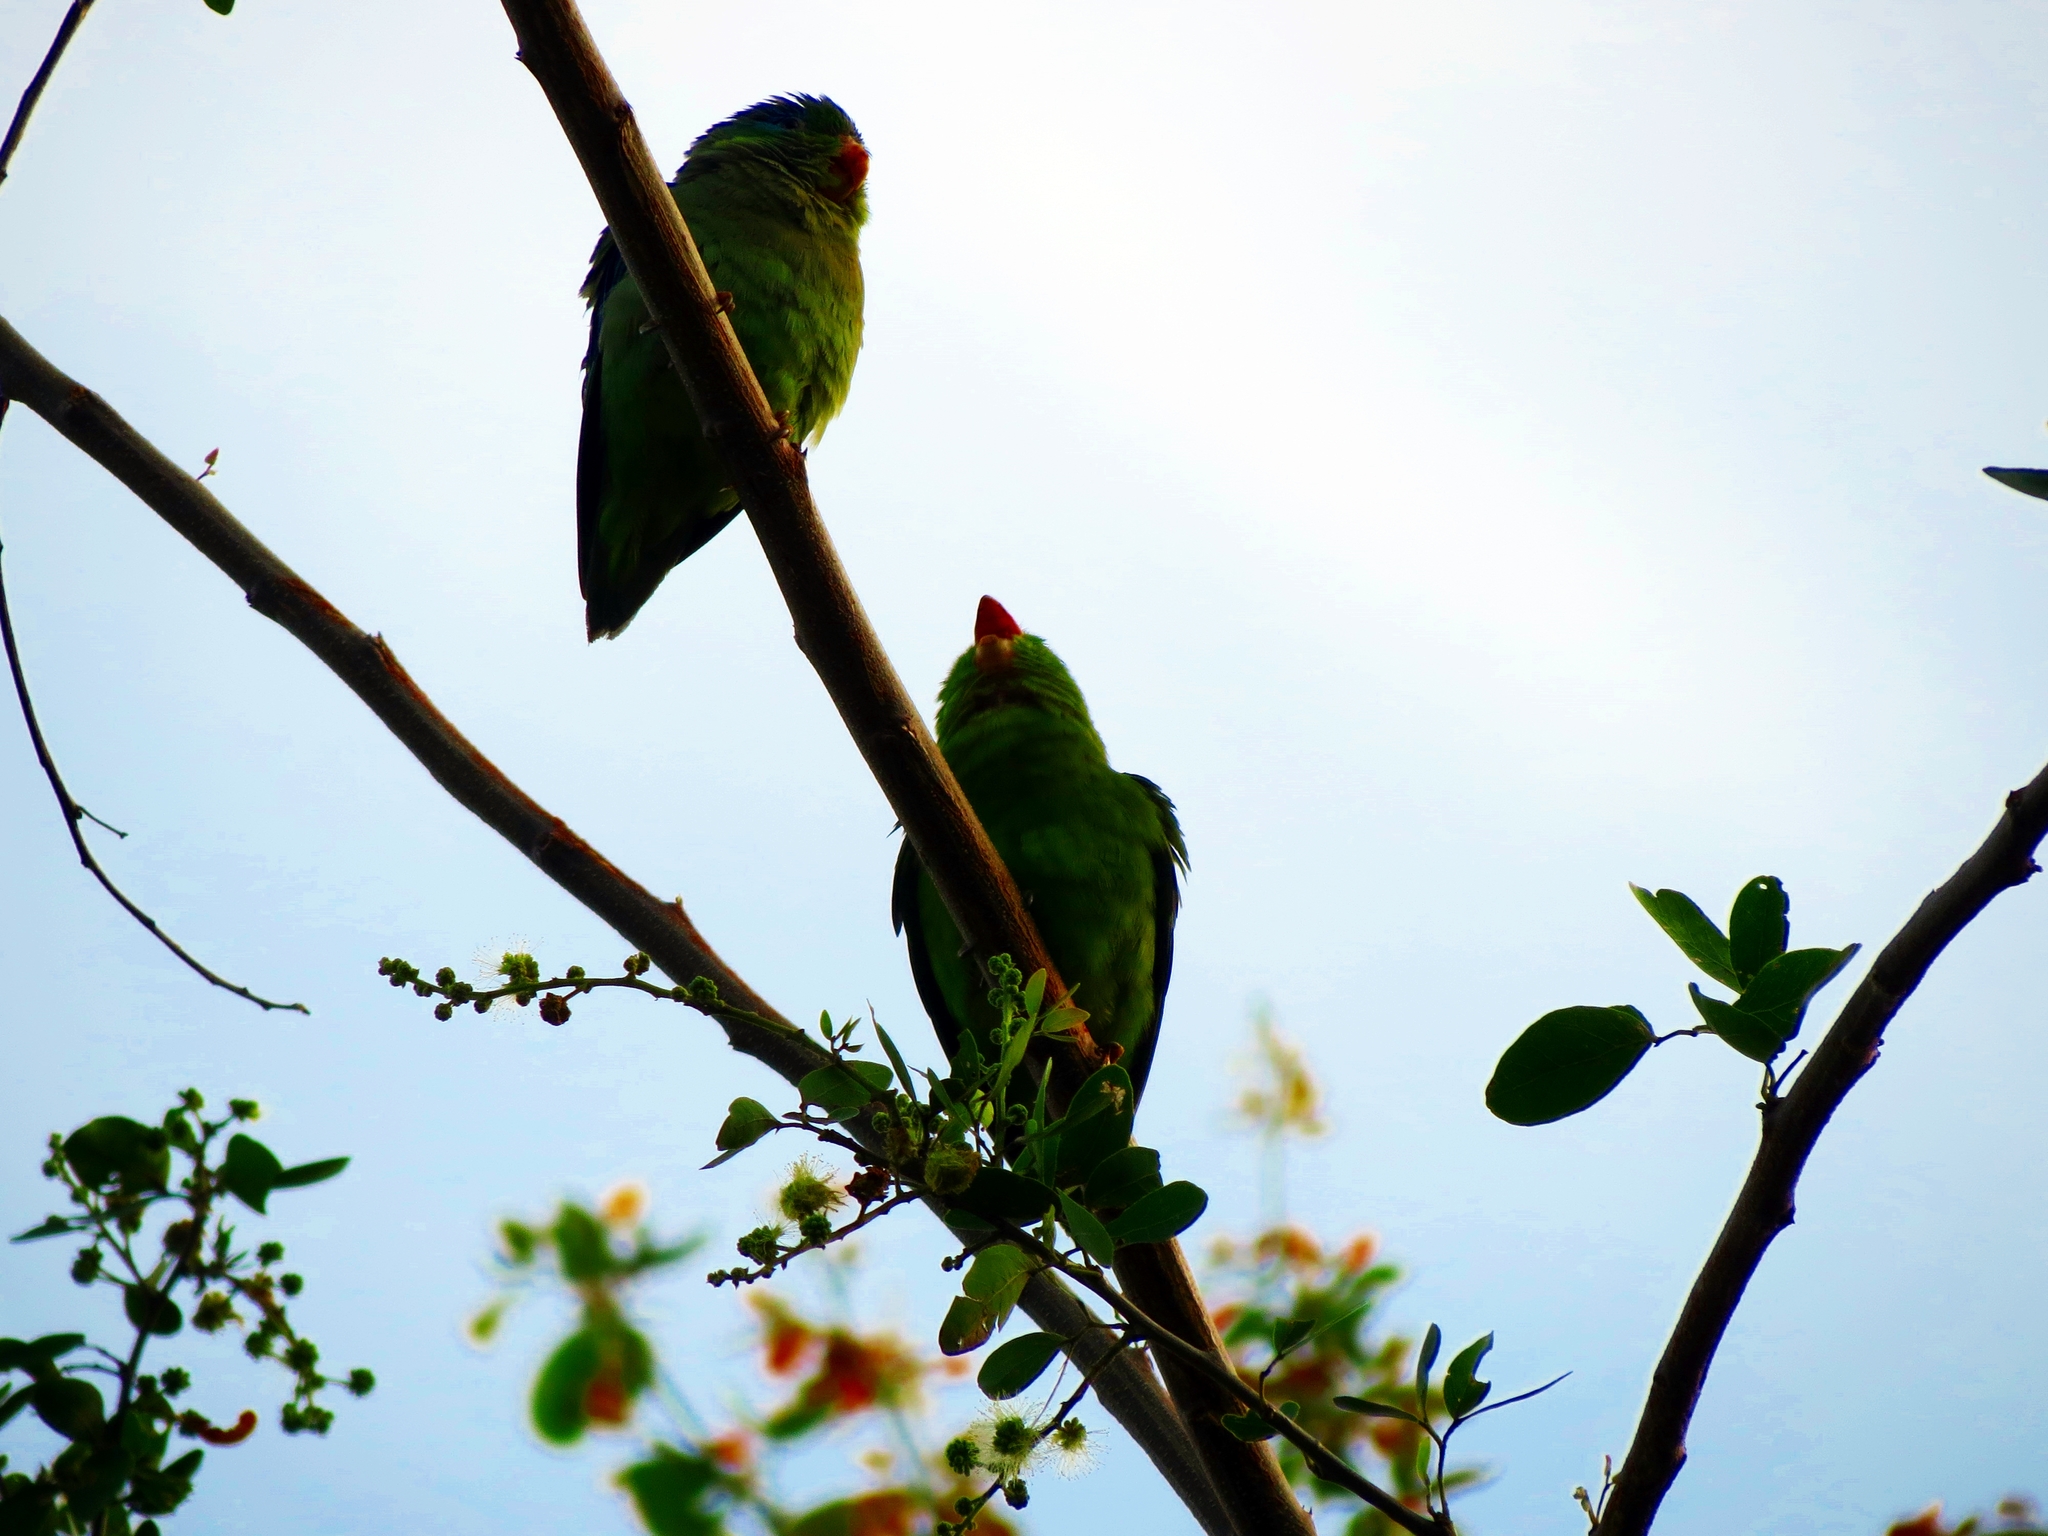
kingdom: Animalia
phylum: Chordata
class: Aves
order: Psittaciformes
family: Psittacidae
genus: Forpus
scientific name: Forpus conspicillatus
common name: Spectacled parrotlet
